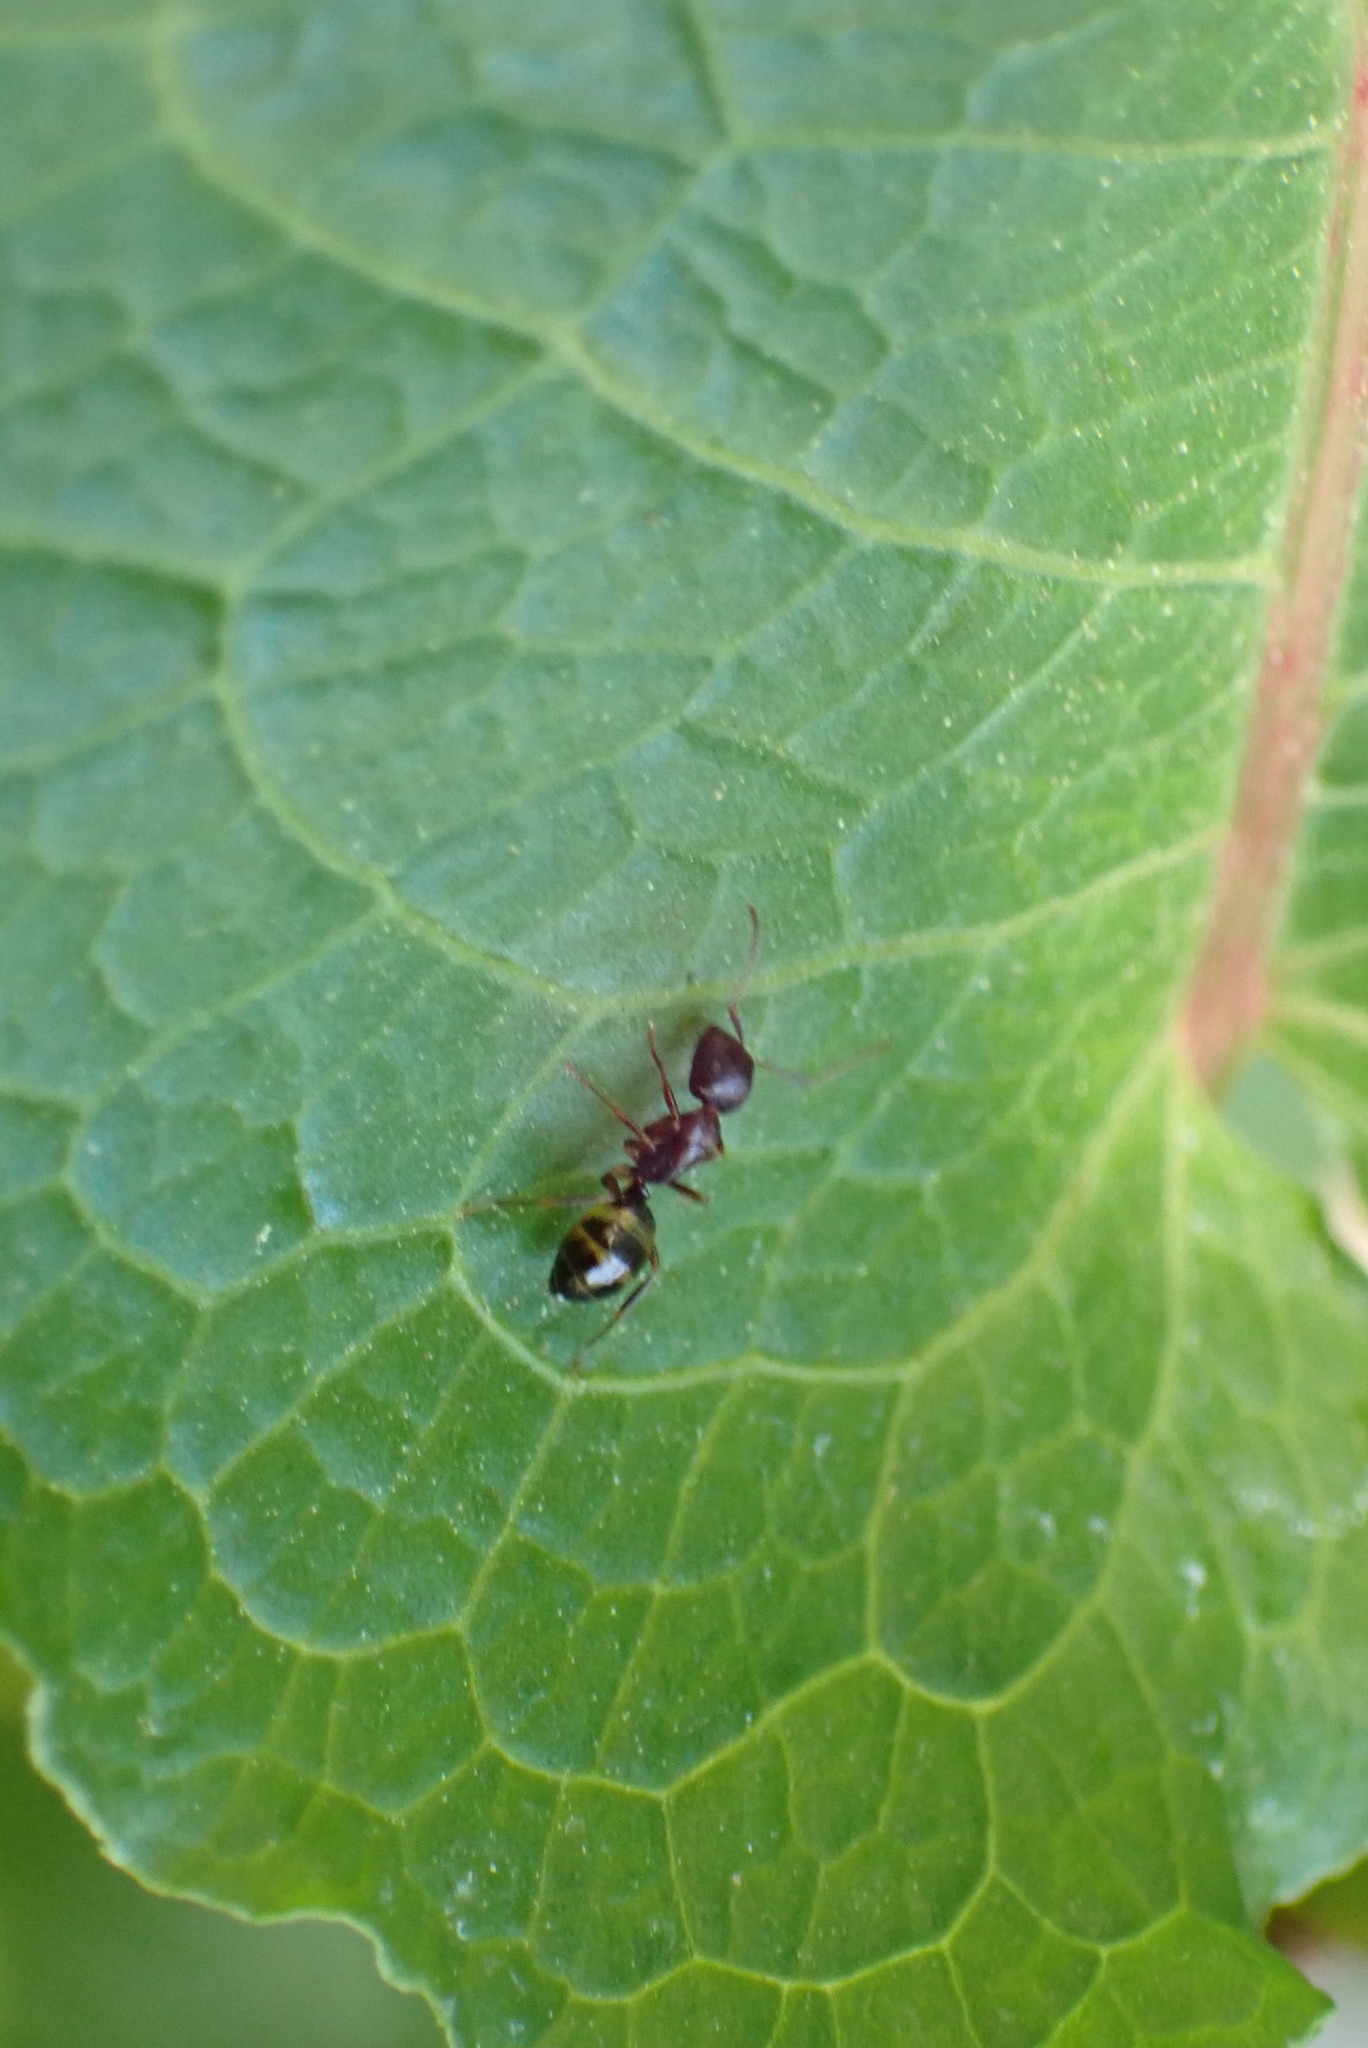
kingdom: Animalia
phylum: Arthropoda
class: Insecta
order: Hymenoptera
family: Formicidae
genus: Camponotus
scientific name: Camponotus subbarbatus
